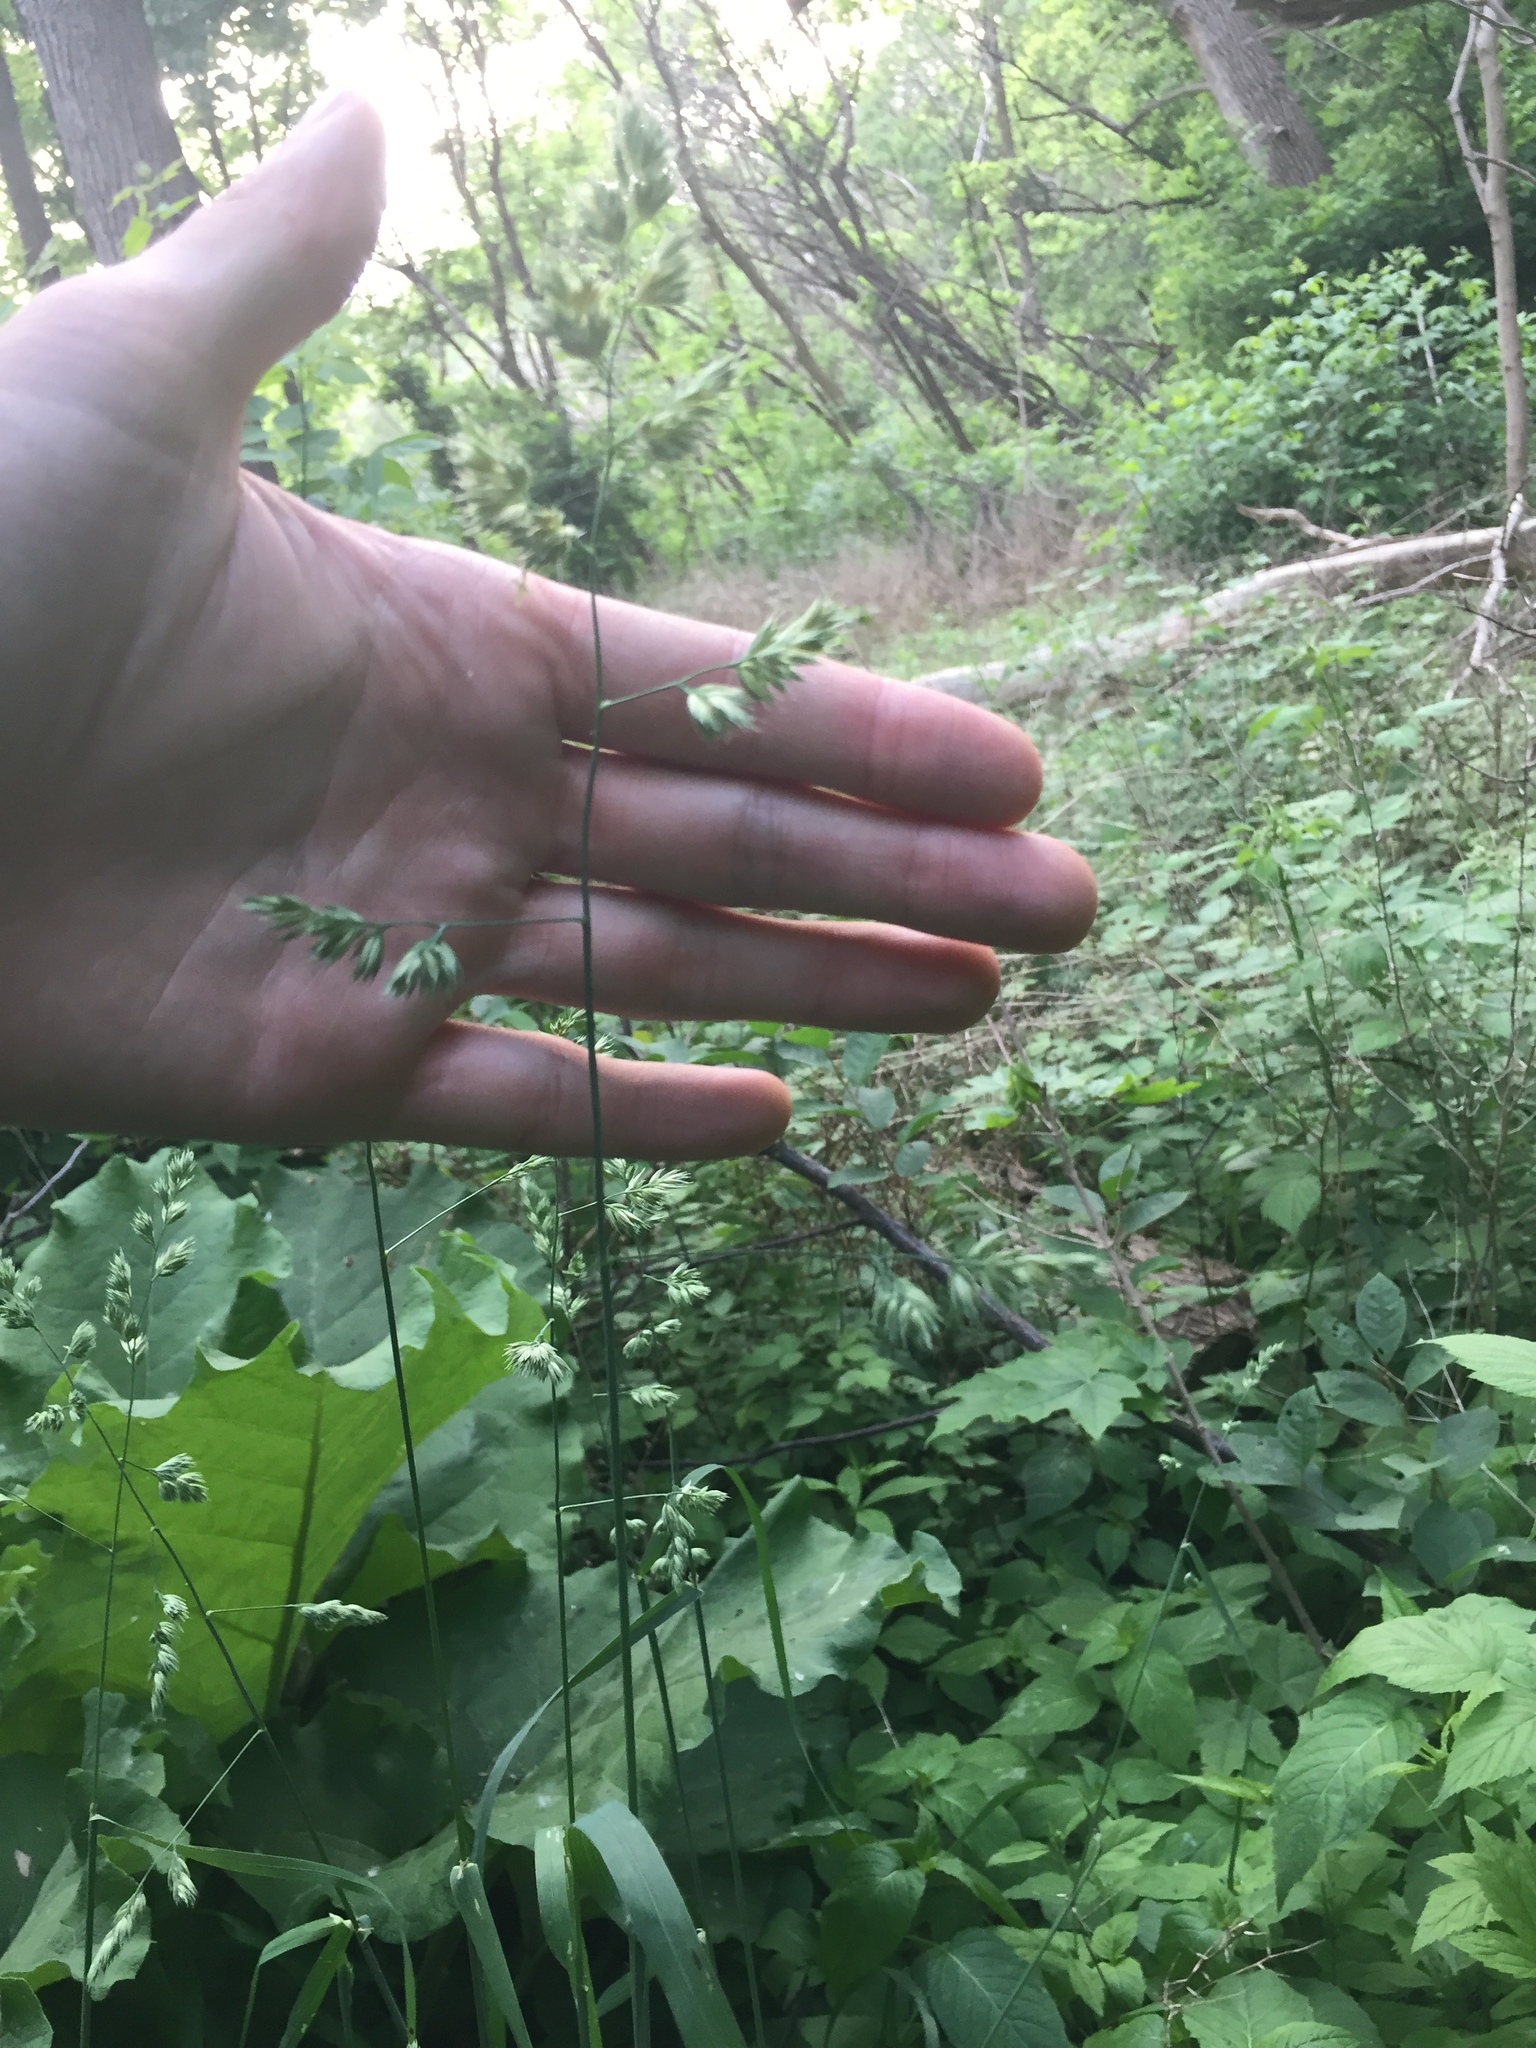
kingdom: Plantae
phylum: Tracheophyta
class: Liliopsida
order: Poales
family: Poaceae
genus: Dactylis
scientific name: Dactylis glomerata
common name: Orchardgrass
